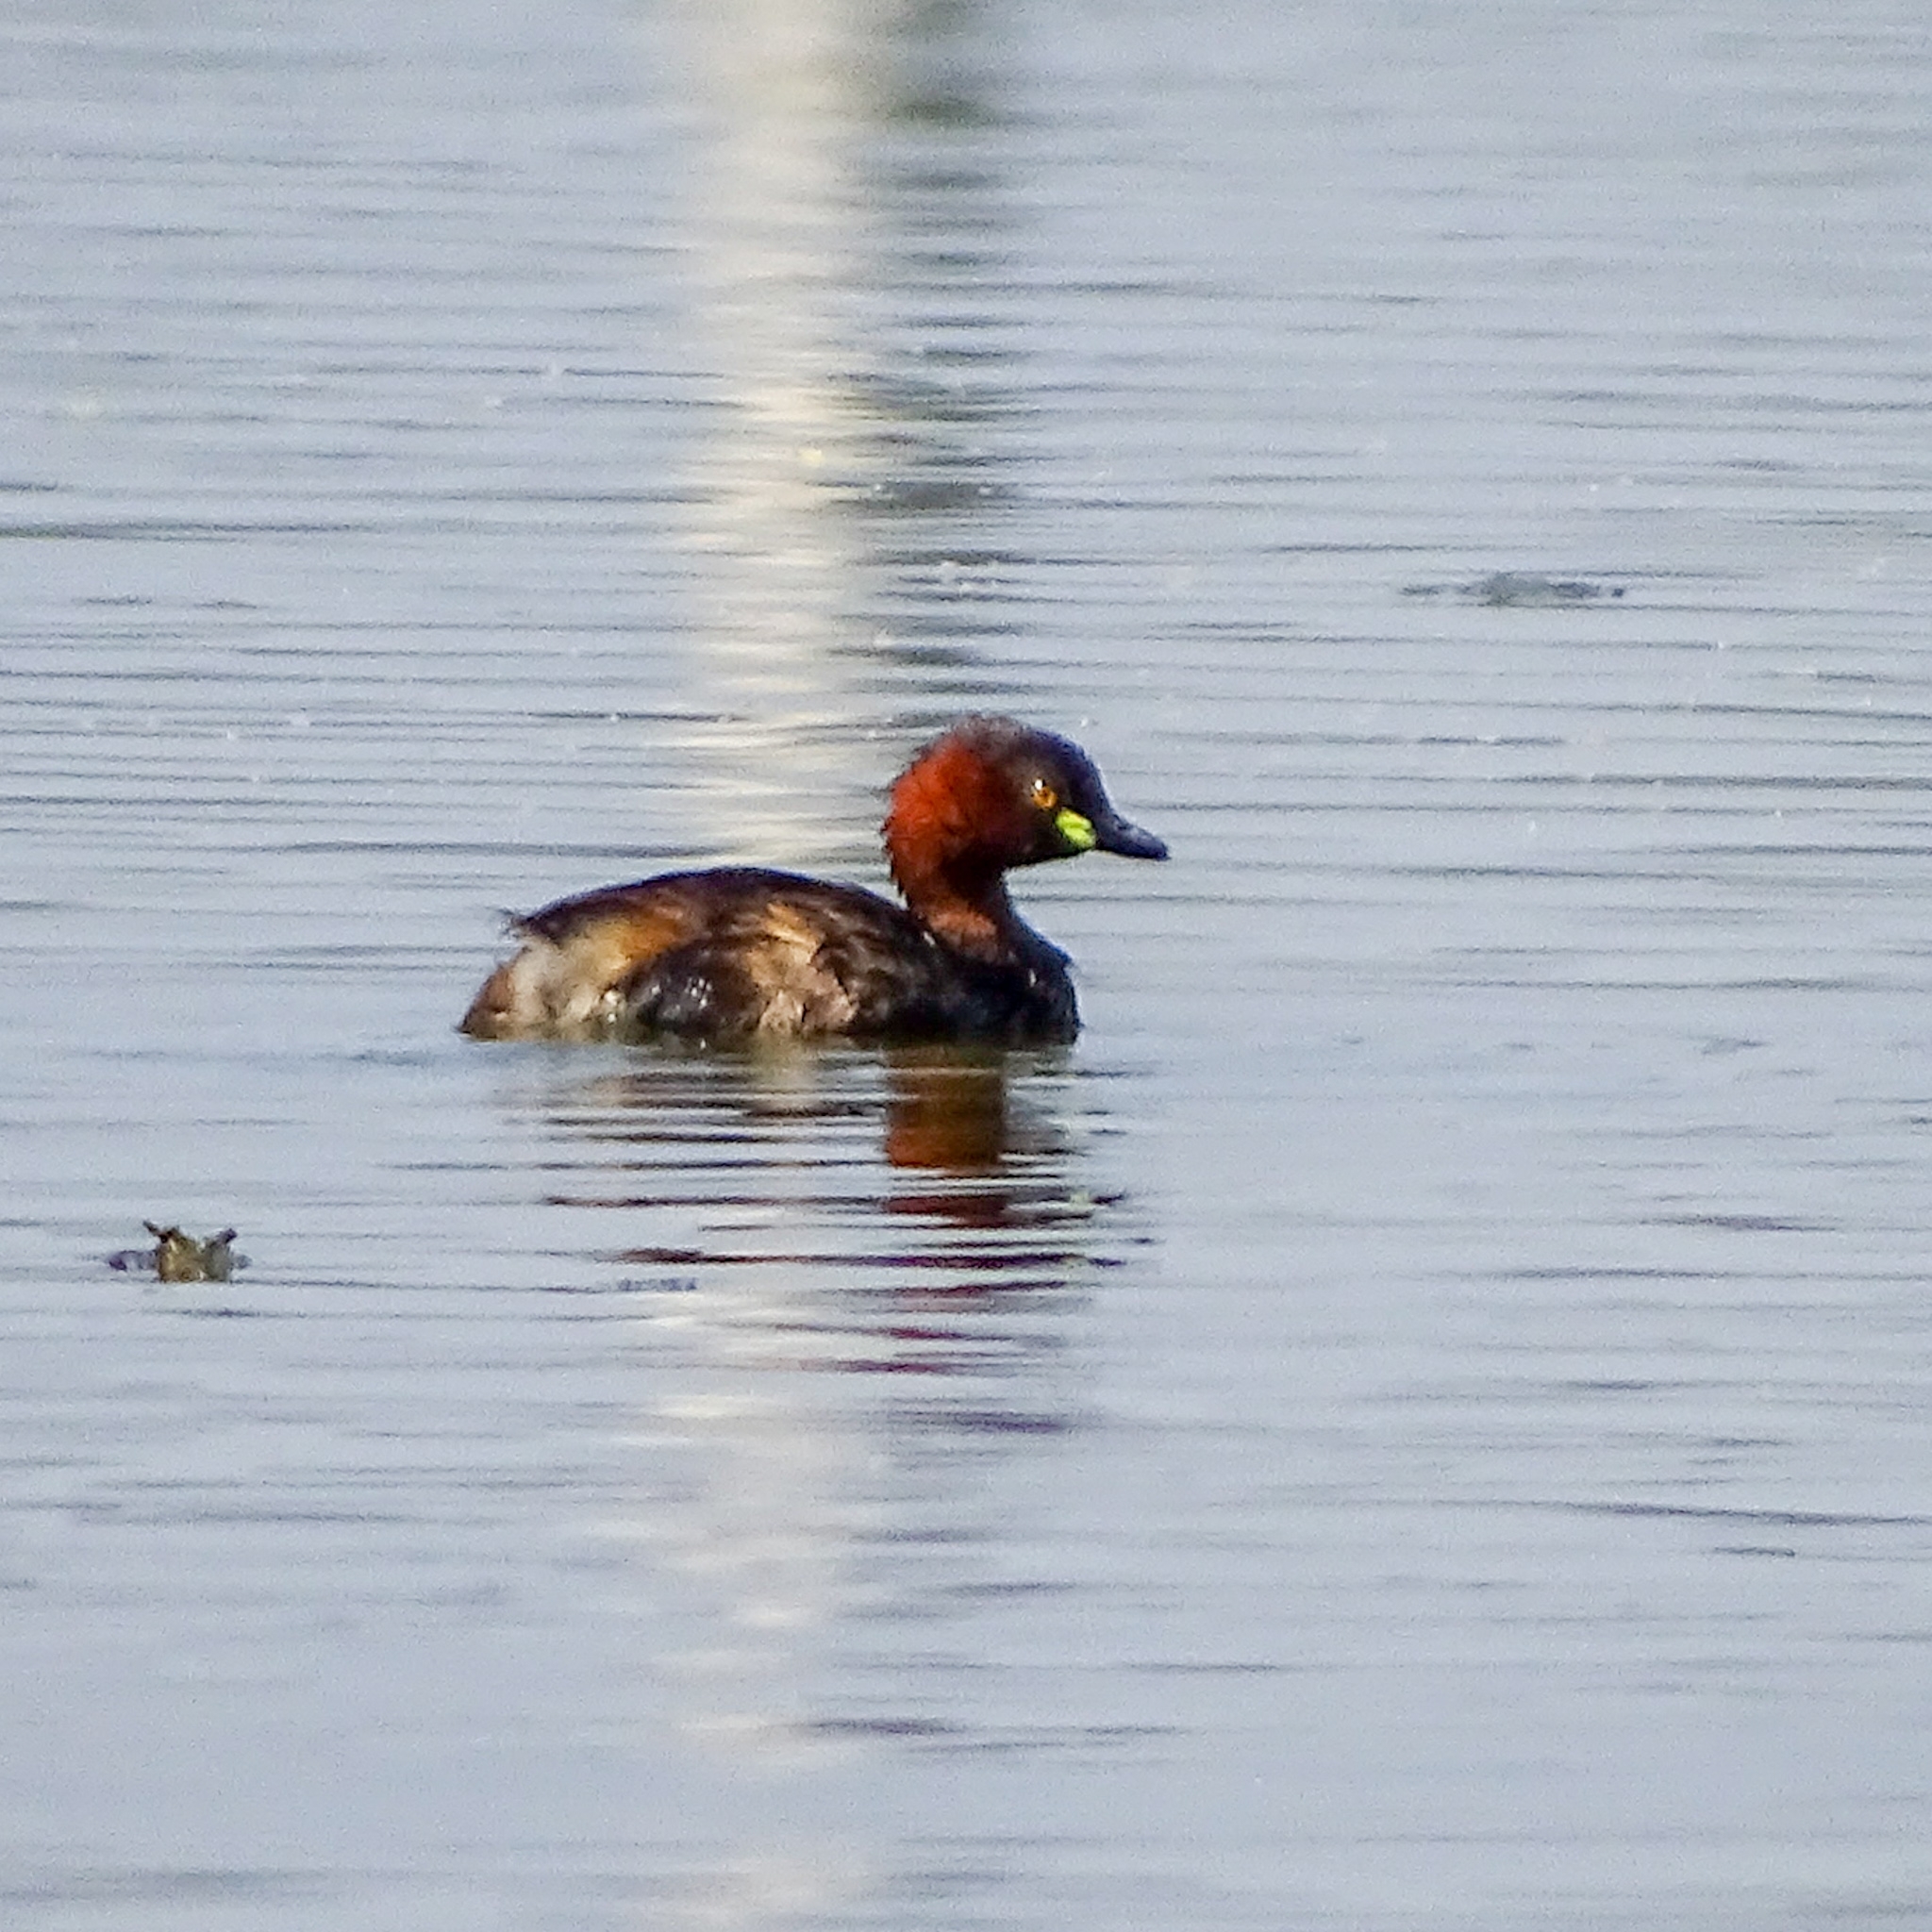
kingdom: Animalia
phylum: Chordata
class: Aves
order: Podicipediformes
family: Podicipedidae
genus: Tachybaptus
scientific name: Tachybaptus ruficollis
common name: Little grebe
